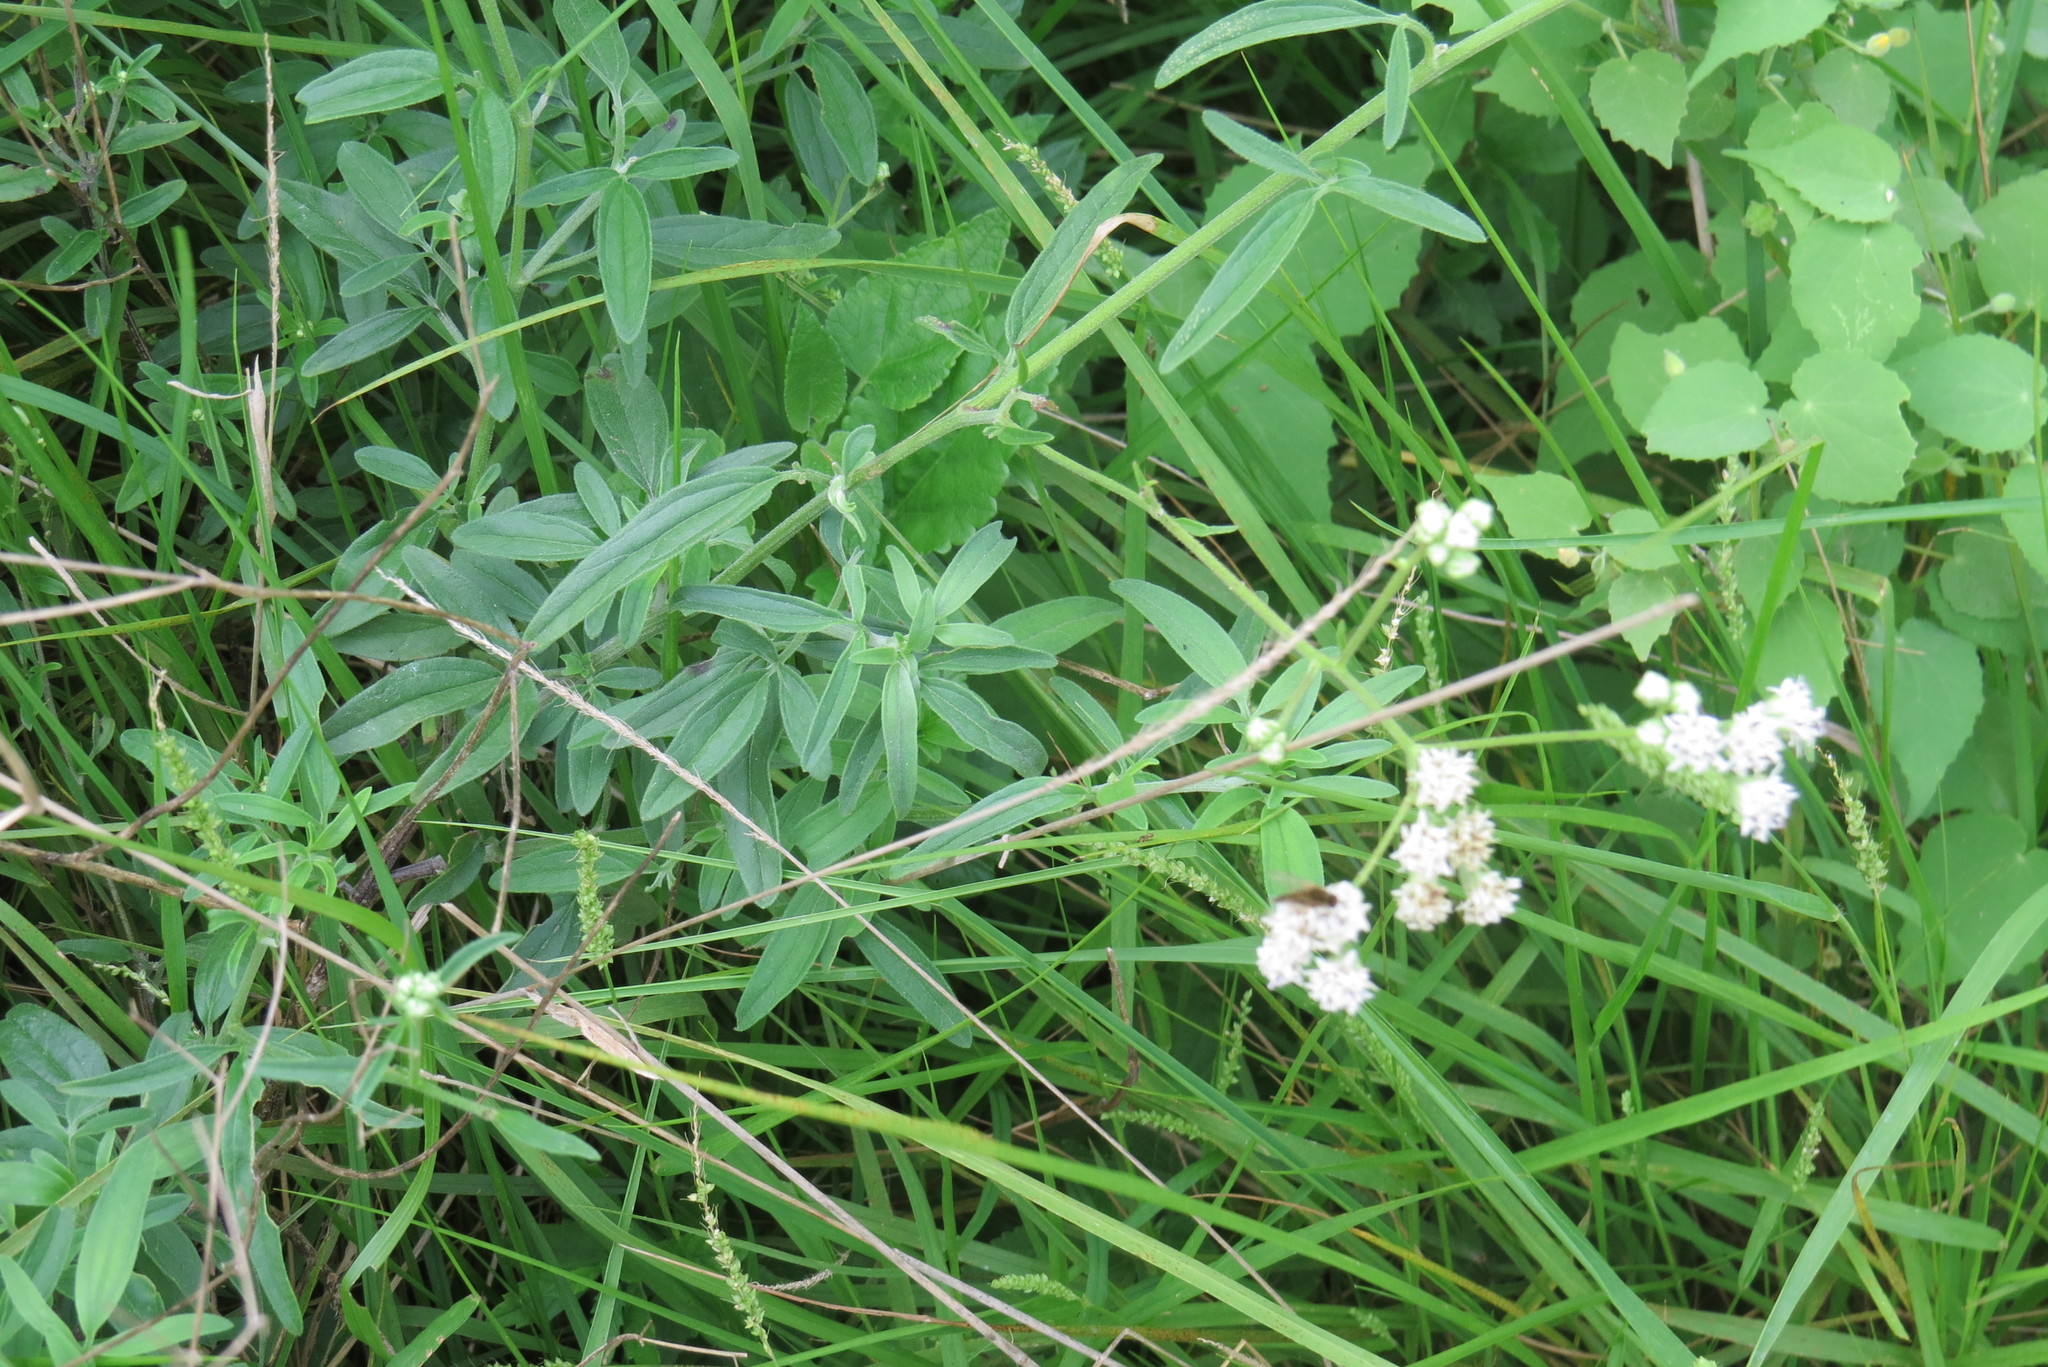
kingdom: Plantae
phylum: Tracheophyta
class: Magnoliopsida
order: Asterales
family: Asteraceae
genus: Florestina
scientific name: Florestina tripteris
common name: Sticky florestina
